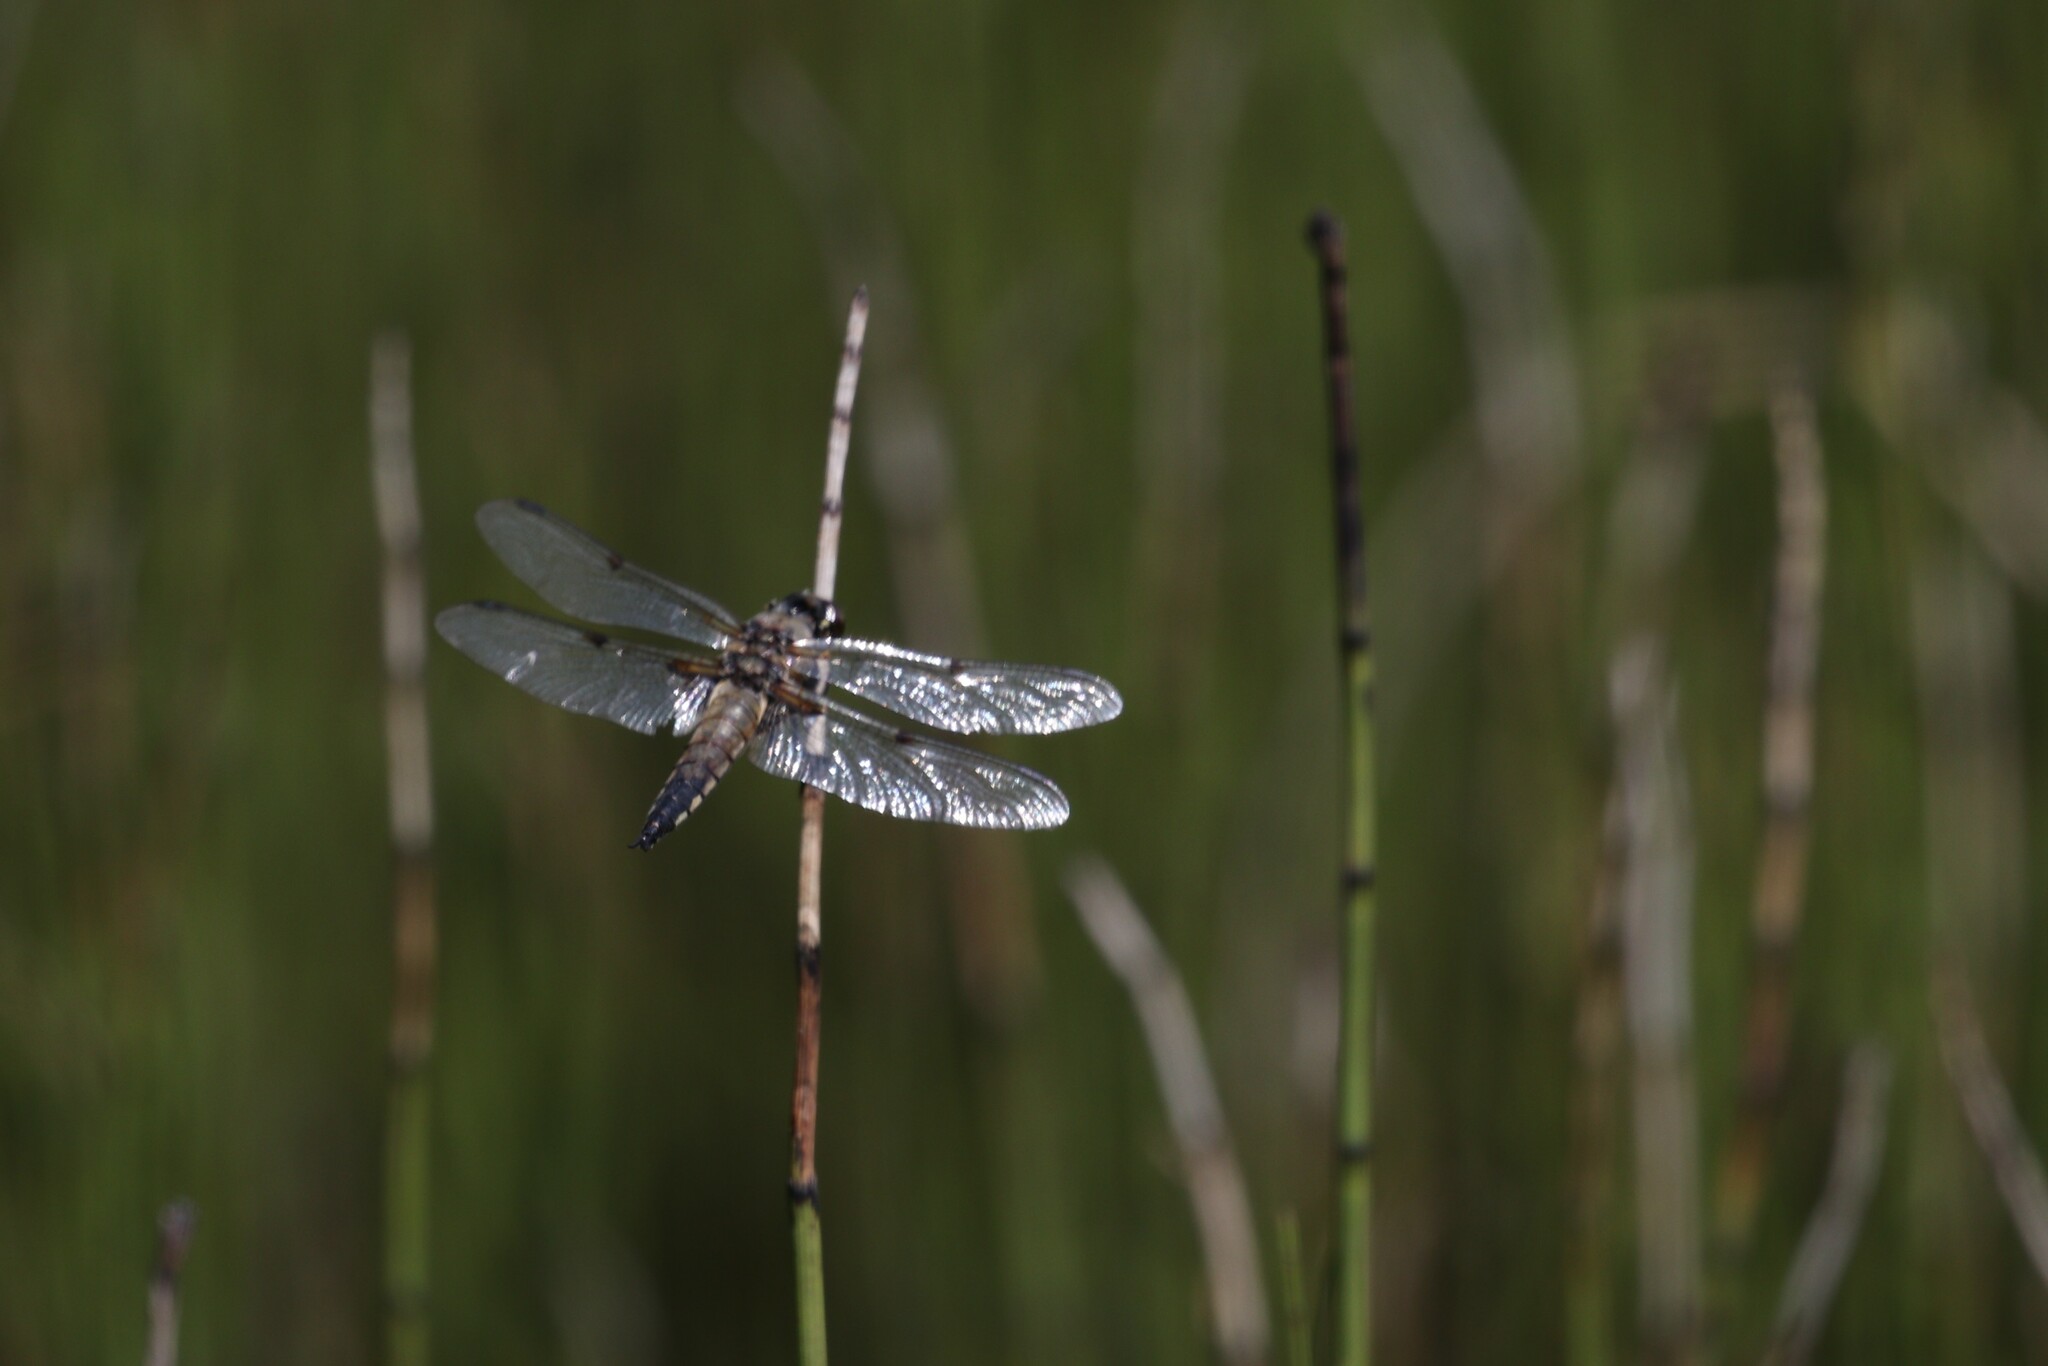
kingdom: Animalia
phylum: Arthropoda
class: Insecta
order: Odonata
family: Libellulidae
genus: Libellula
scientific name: Libellula quadrimaculata
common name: Four-spotted chaser
